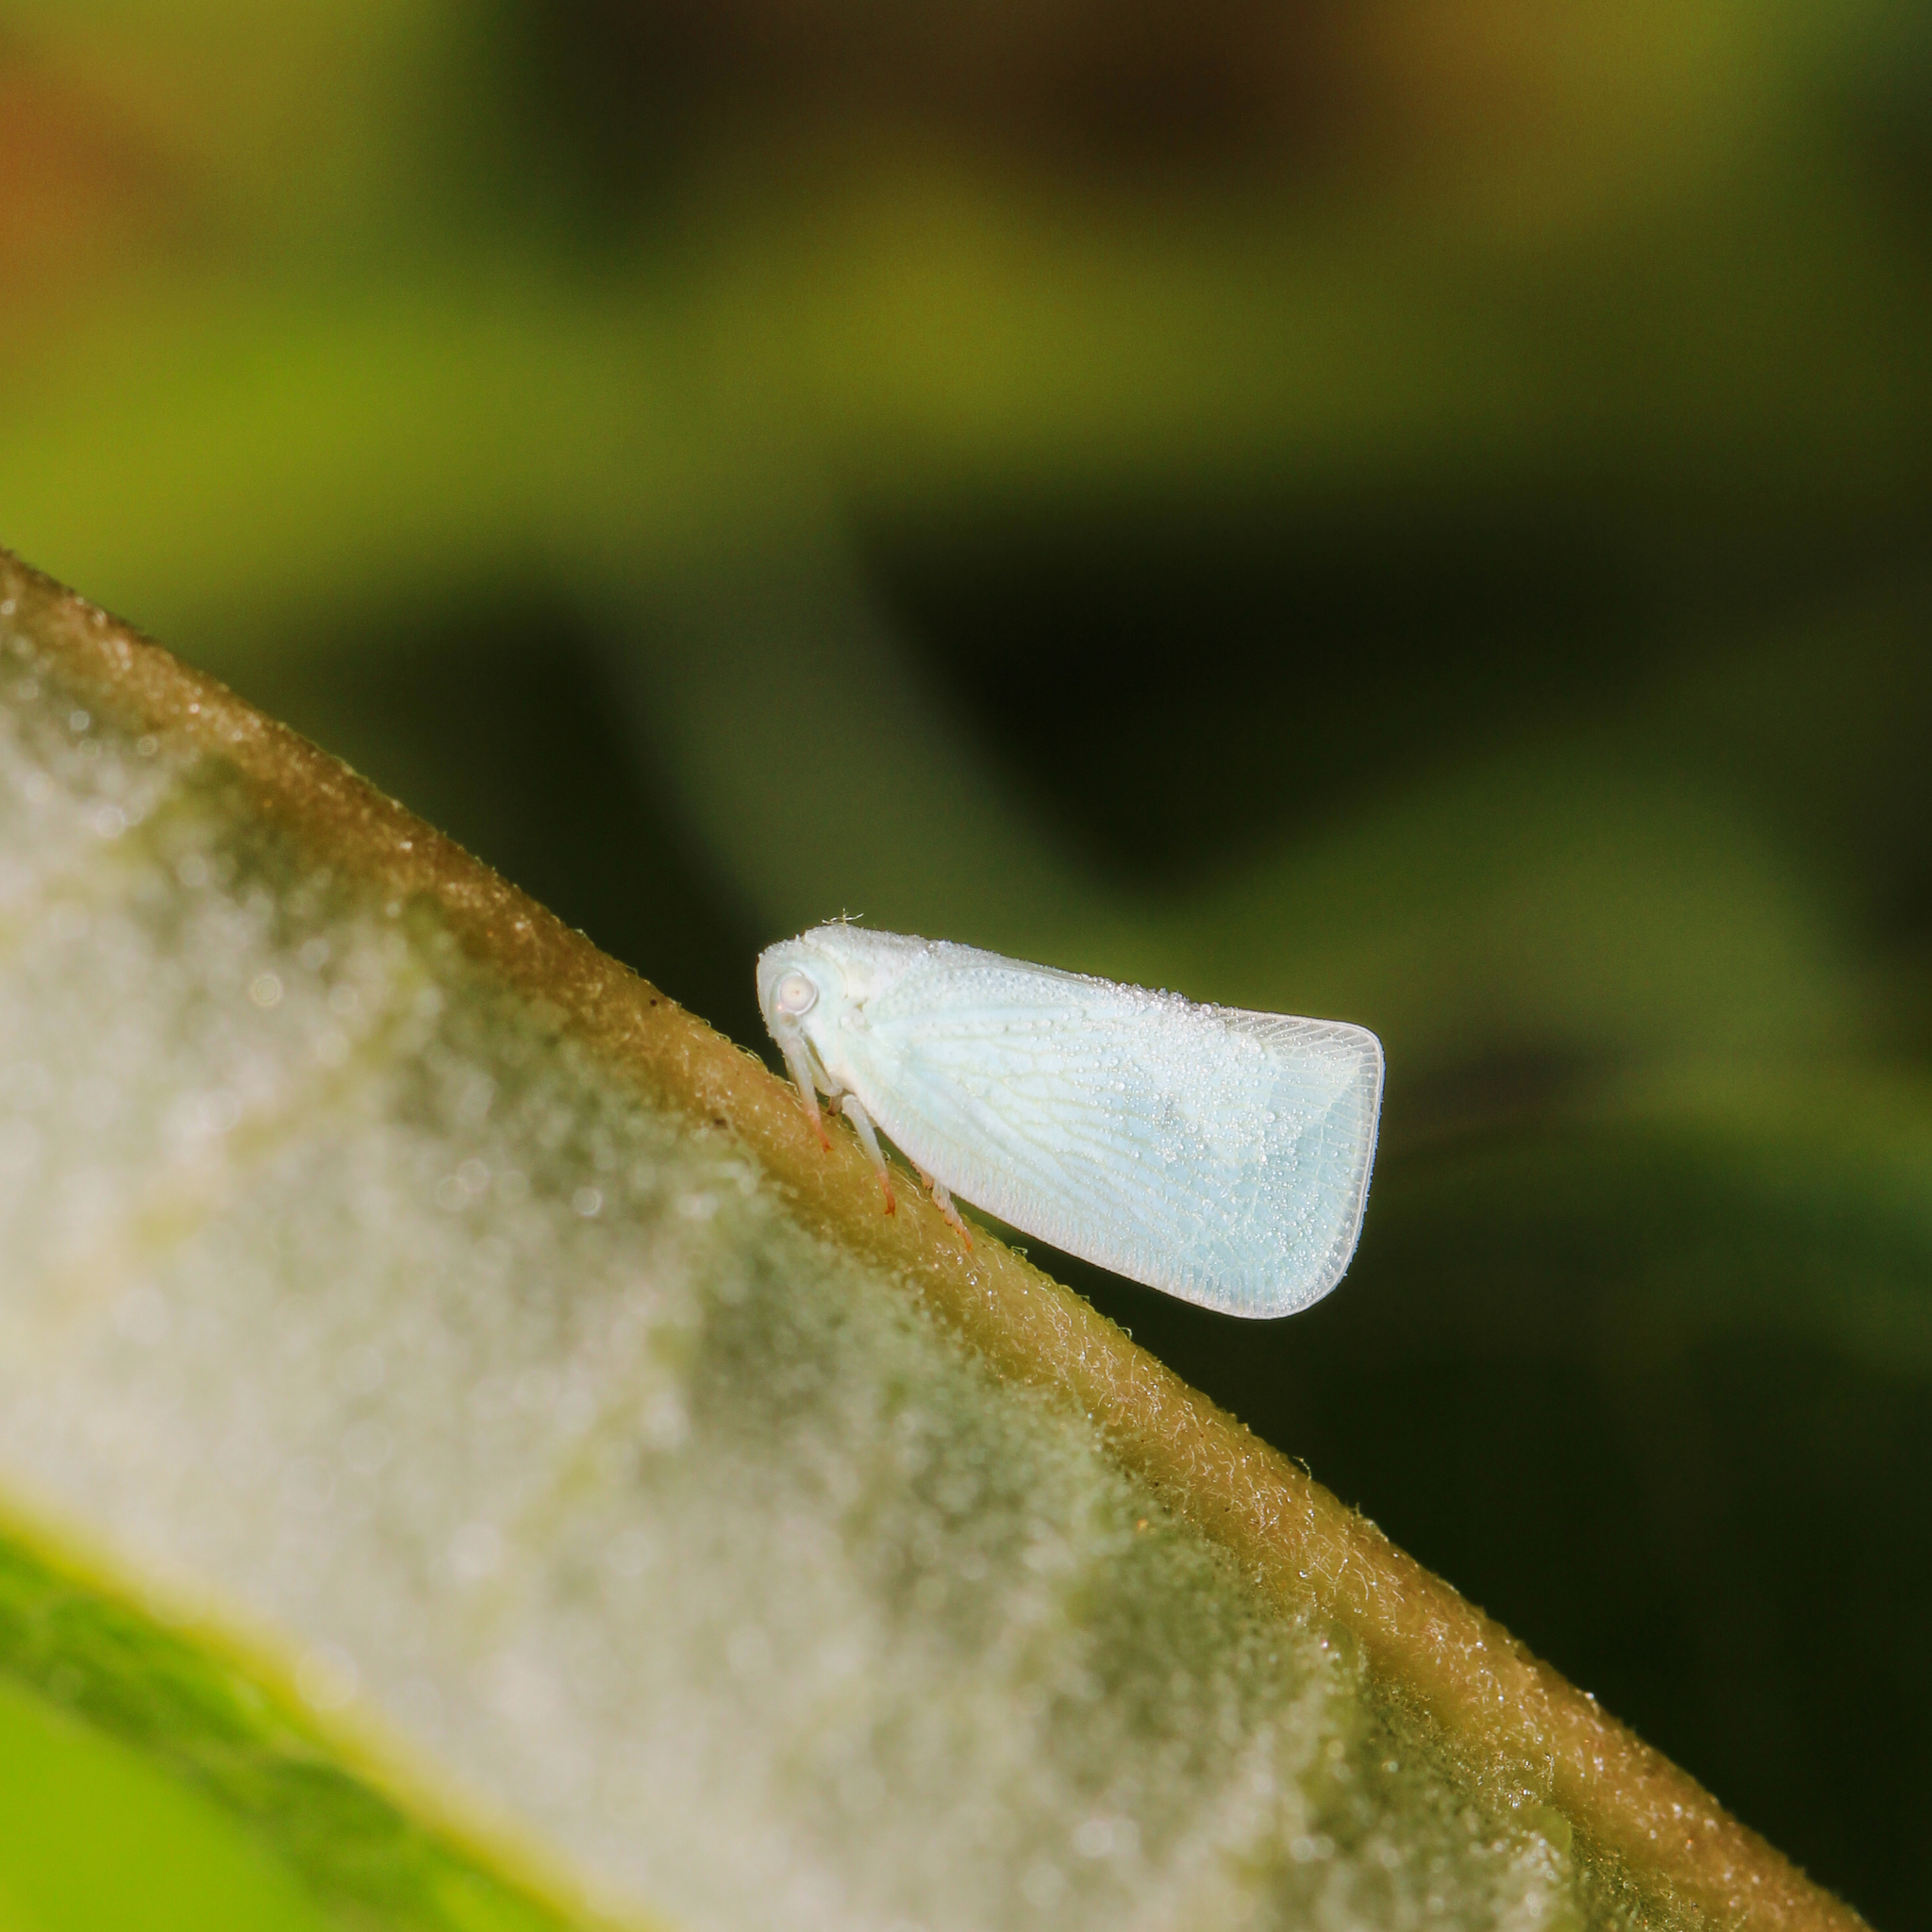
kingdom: Animalia
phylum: Arthropoda
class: Insecta
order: Hemiptera
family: Flatidae
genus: Flatormenis
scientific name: Flatormenis proxima
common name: Northern flatid planthopper
